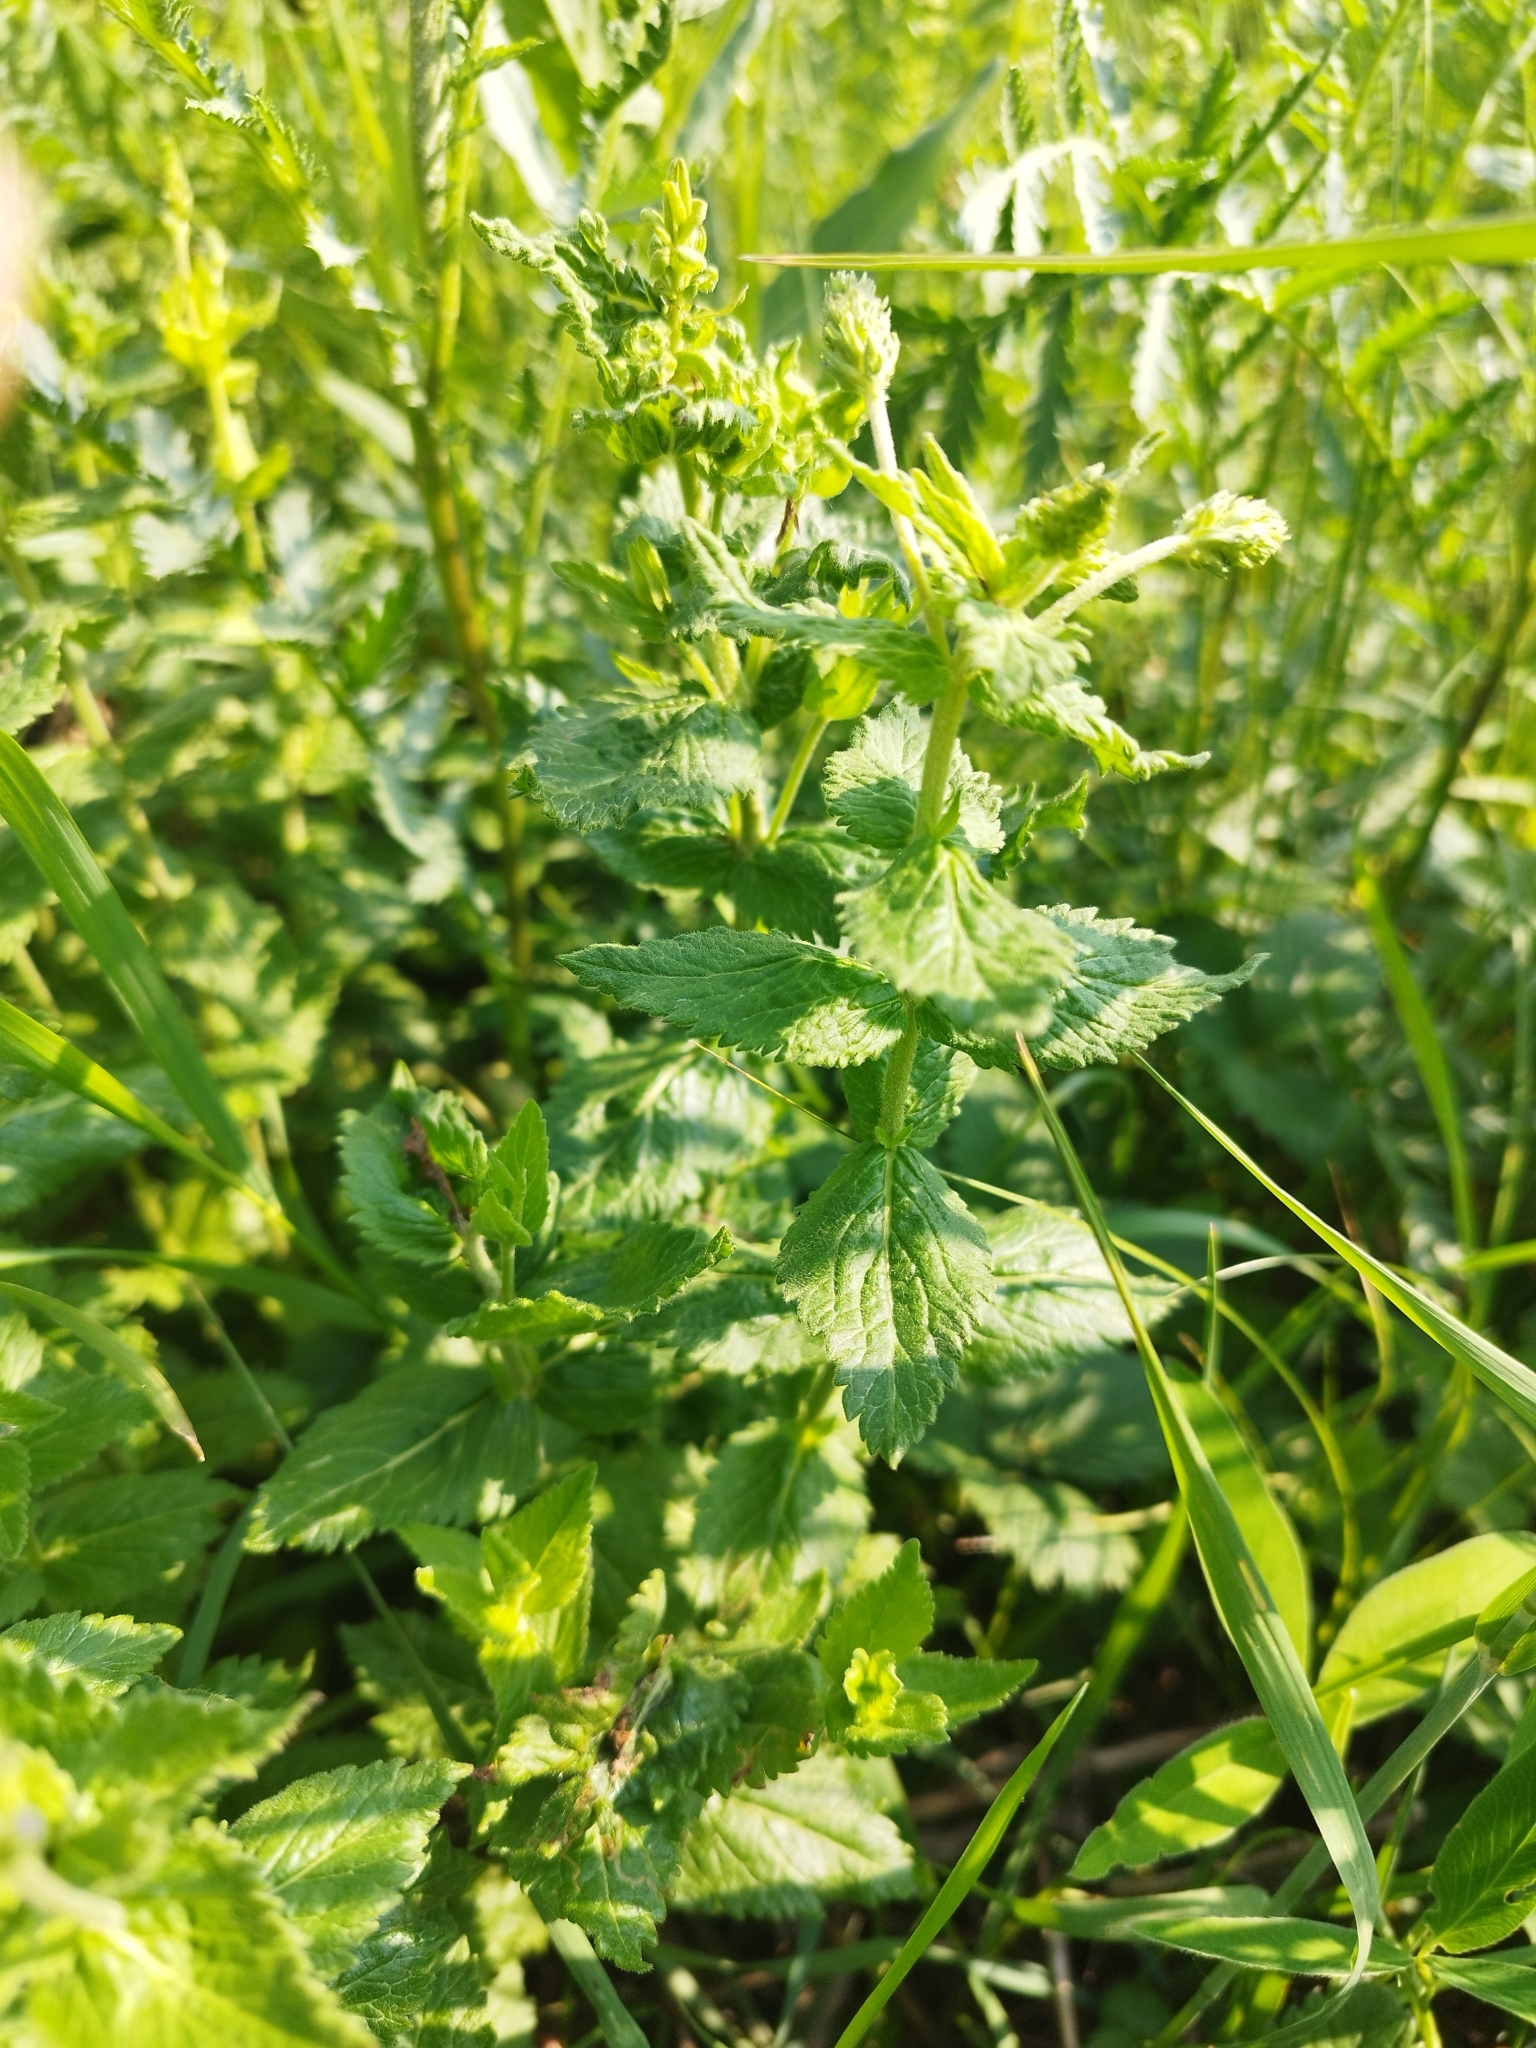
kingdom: Plantae
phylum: Tracheophyta
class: Magnoliopsida
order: Lamiales
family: Plantaginaceae
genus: Veronica
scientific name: Veronica teucrium
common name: Large speedwell
